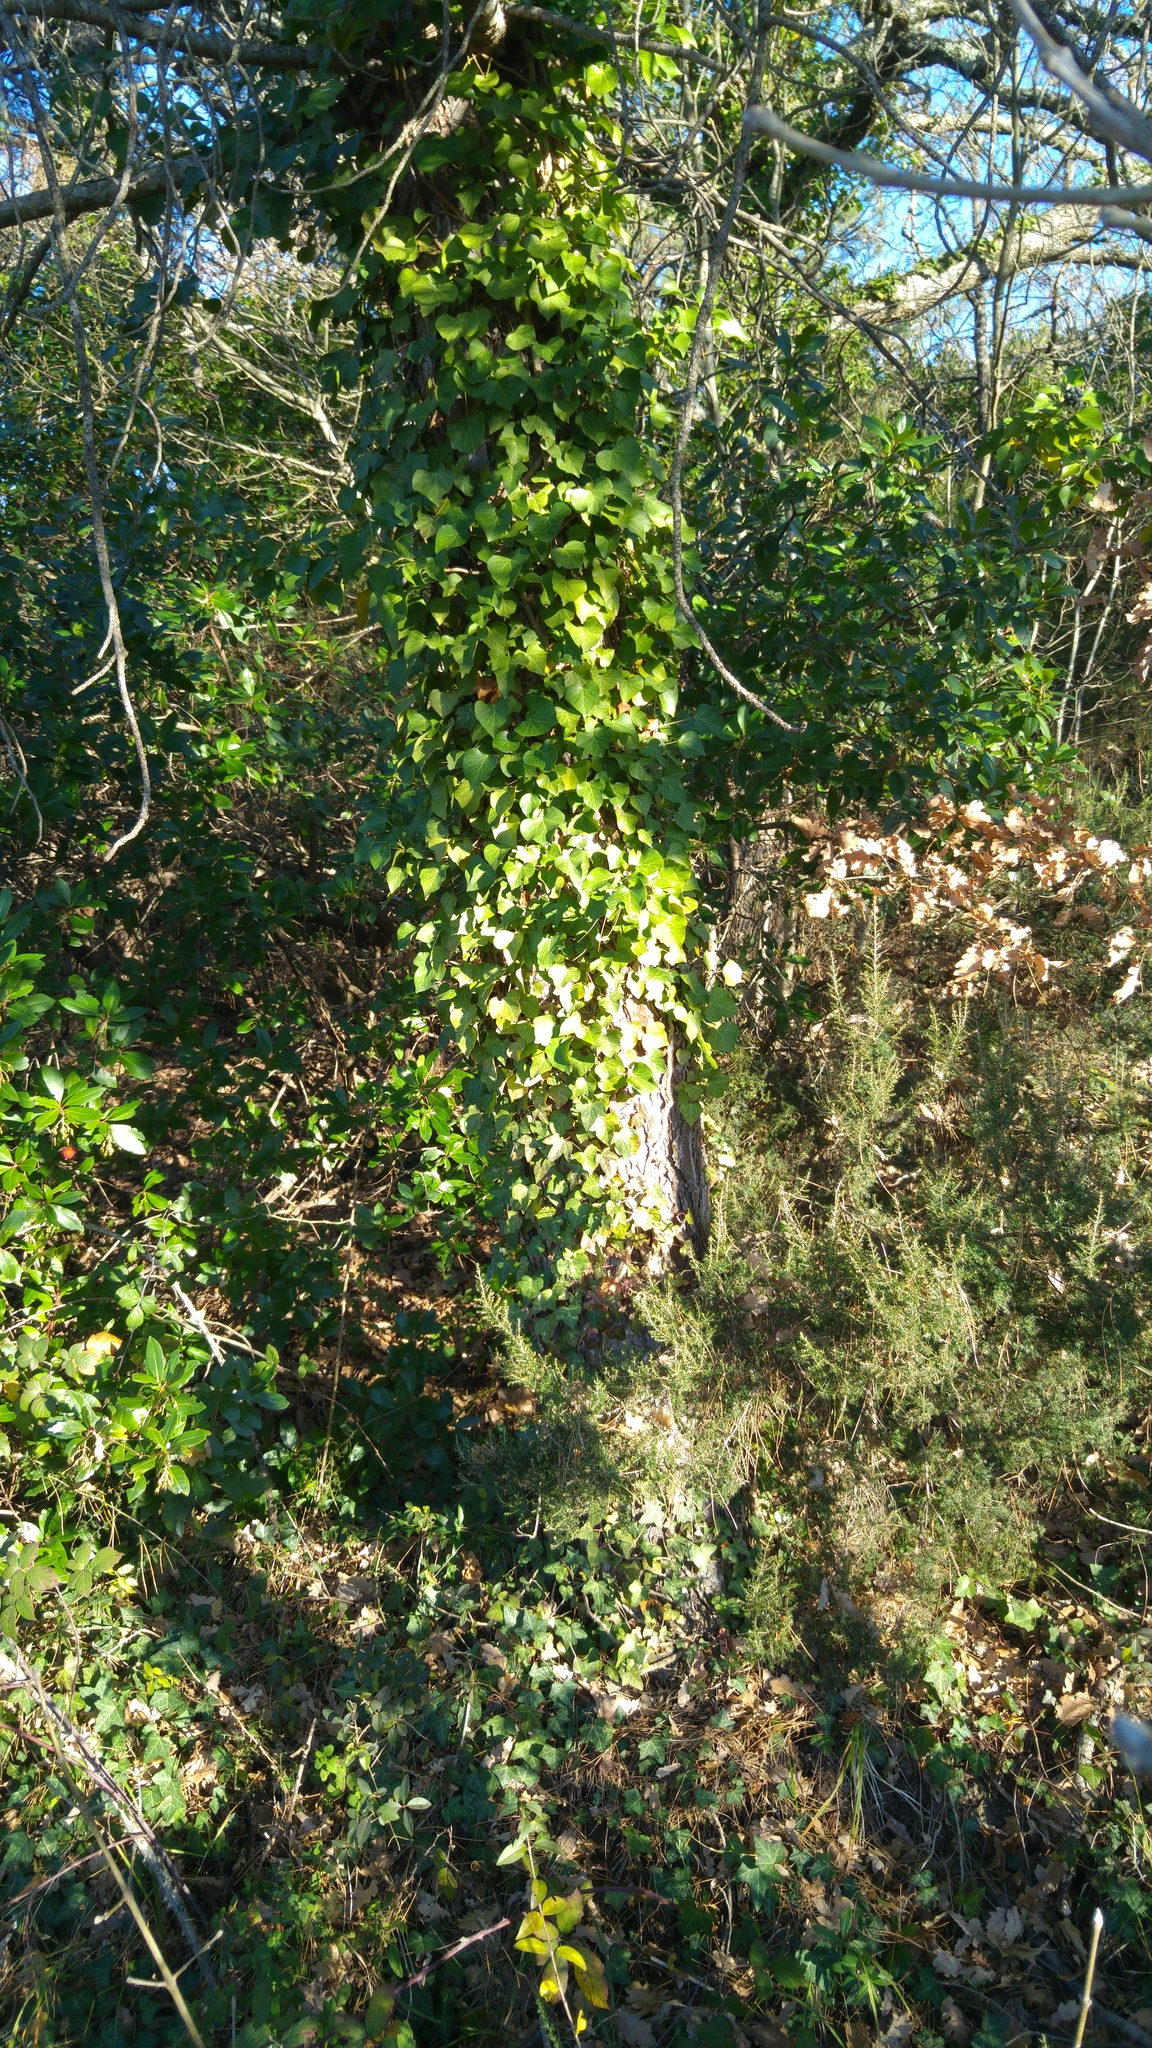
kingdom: Plantae
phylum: Tracheophyta
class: Magnoliopsida
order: Apiales
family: Araliaceae
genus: Hedera
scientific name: Hedera helix
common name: Ivy
